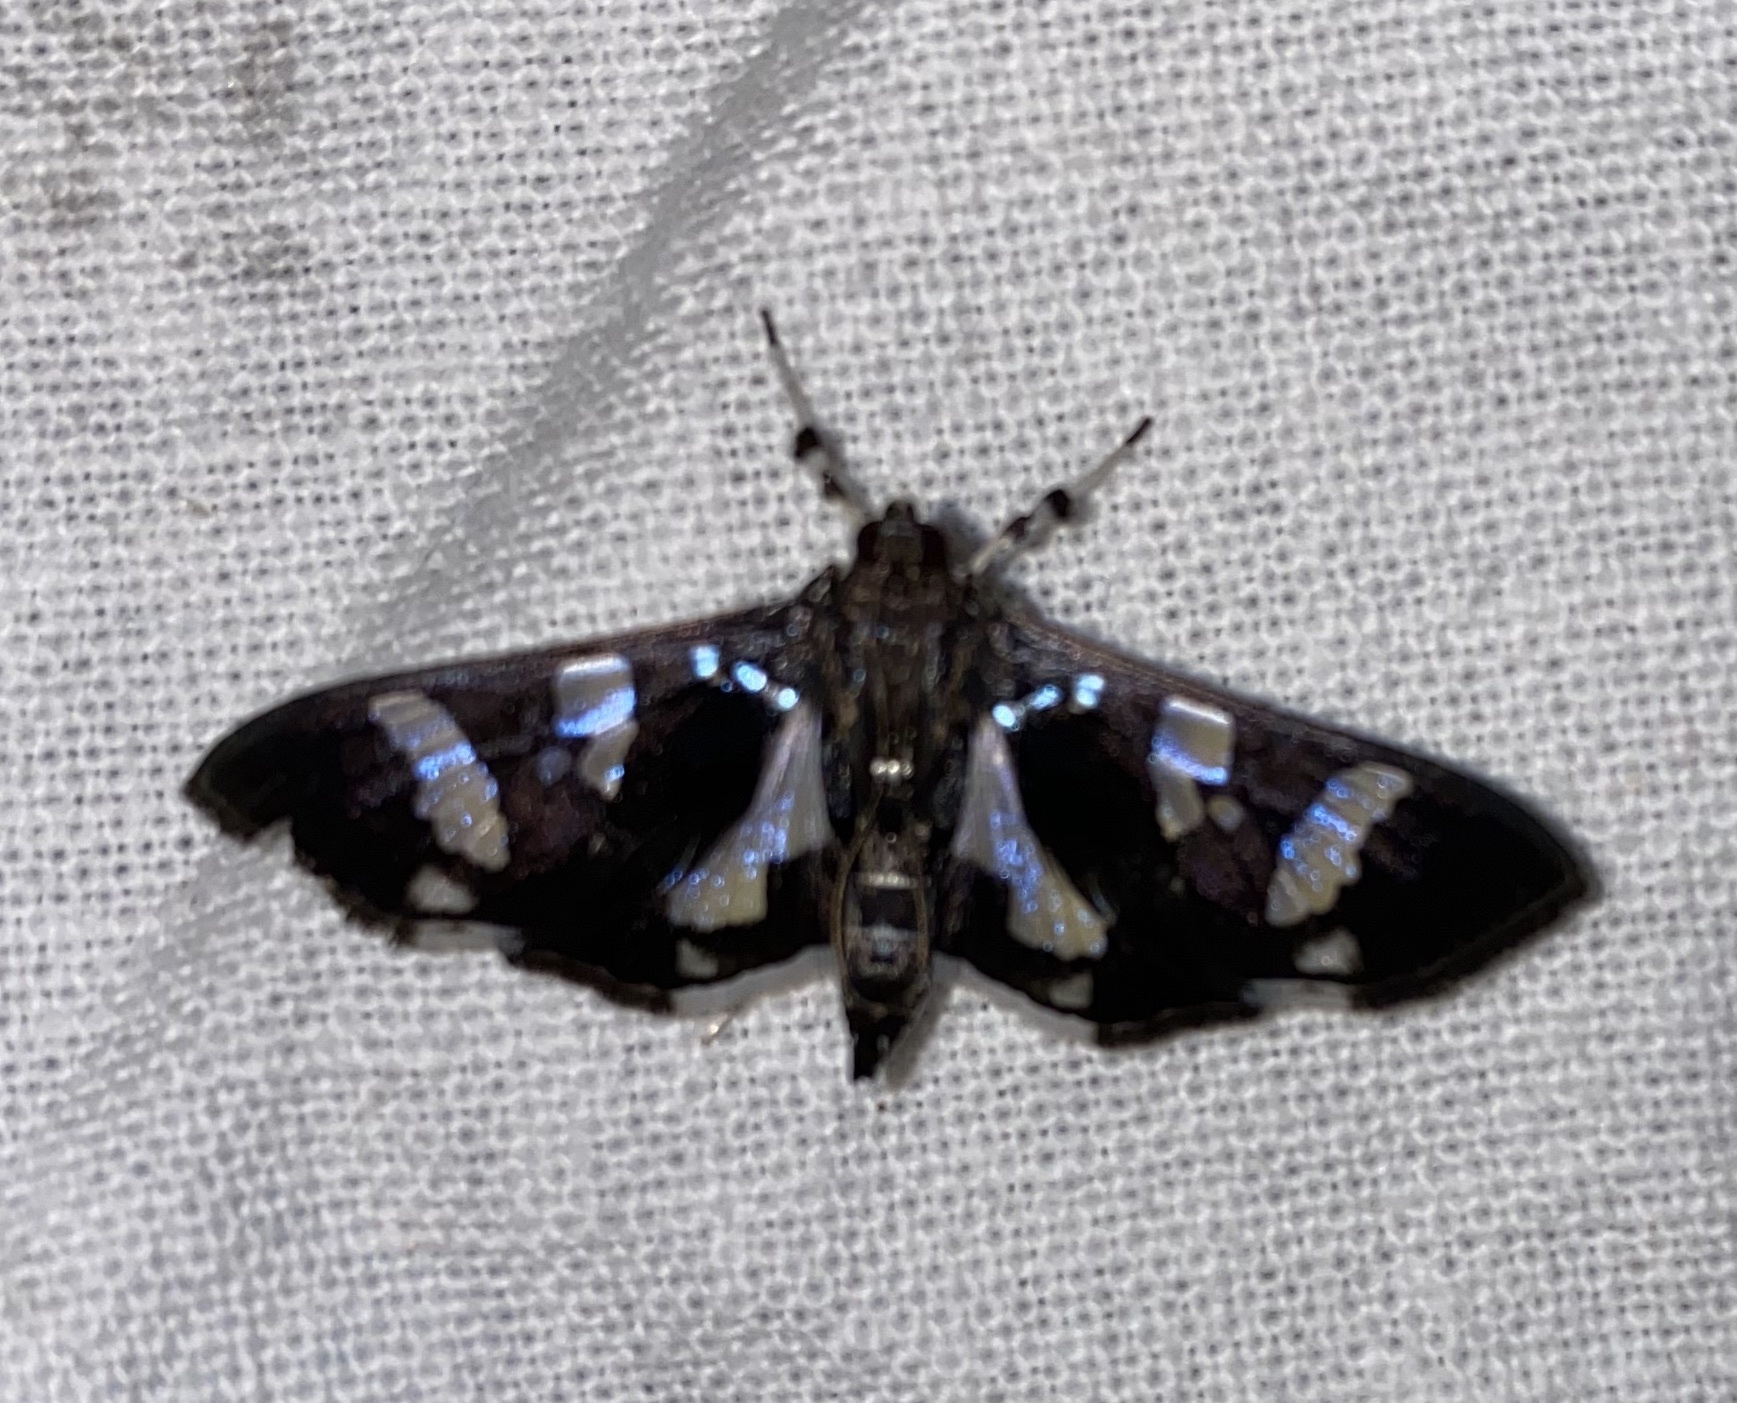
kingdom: Animalia
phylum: Arthropoda
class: Insecta
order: Lepidoptera
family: Crambidae
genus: Desmia
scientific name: Desmia bajulalis
